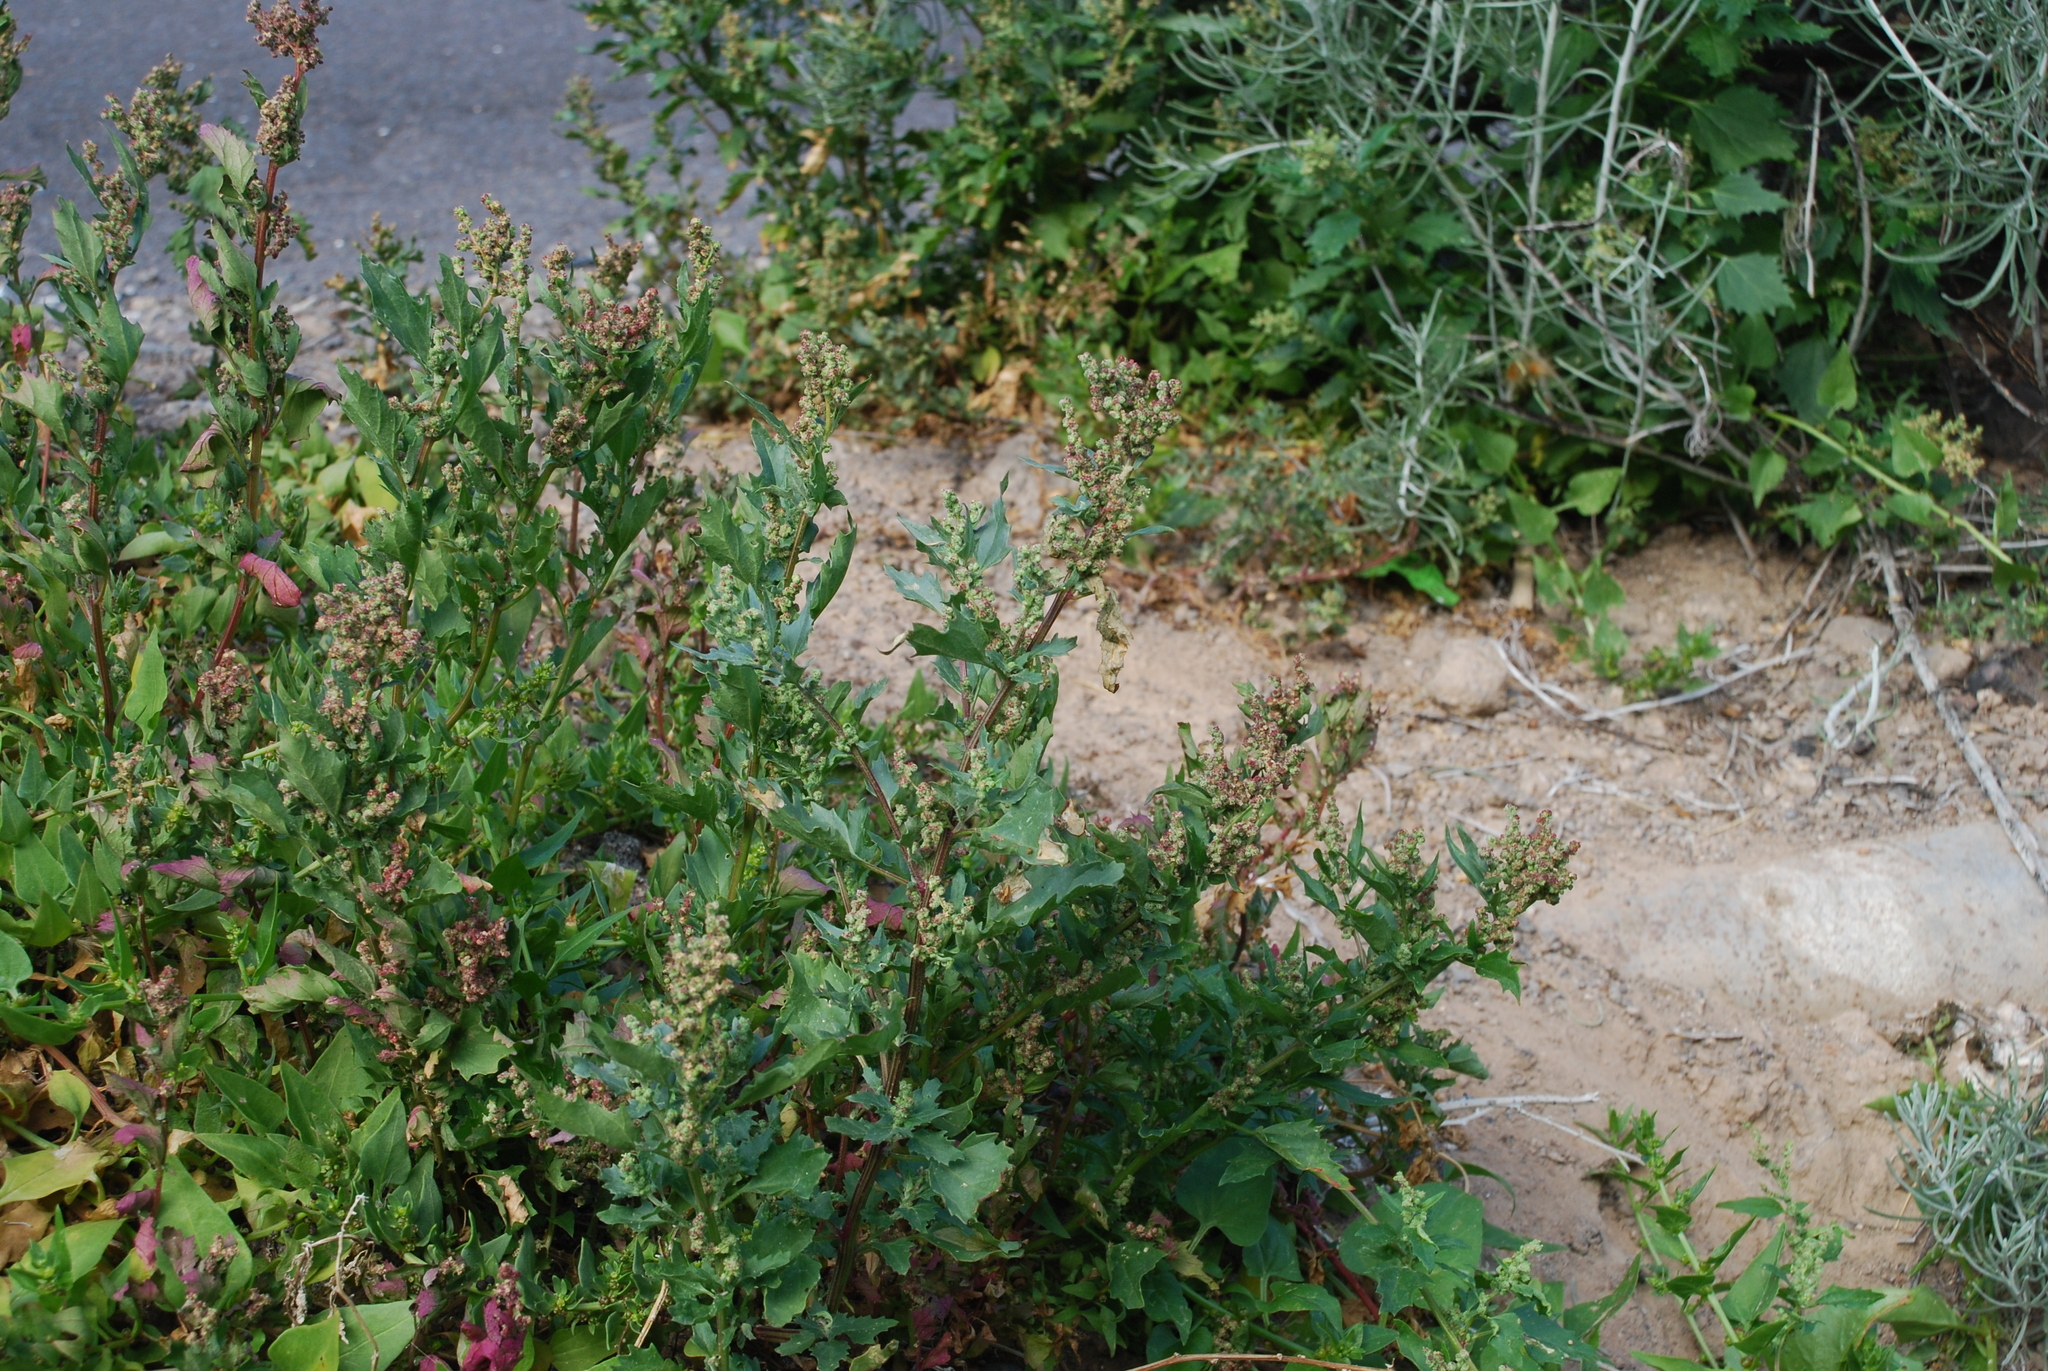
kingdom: Plantae
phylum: Tracheophyta
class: Magnoliopsida
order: Caryophyllales
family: Amaranthaceae
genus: Chenopodiastrum
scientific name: Chenopodiastrum murale
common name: Sowbane
